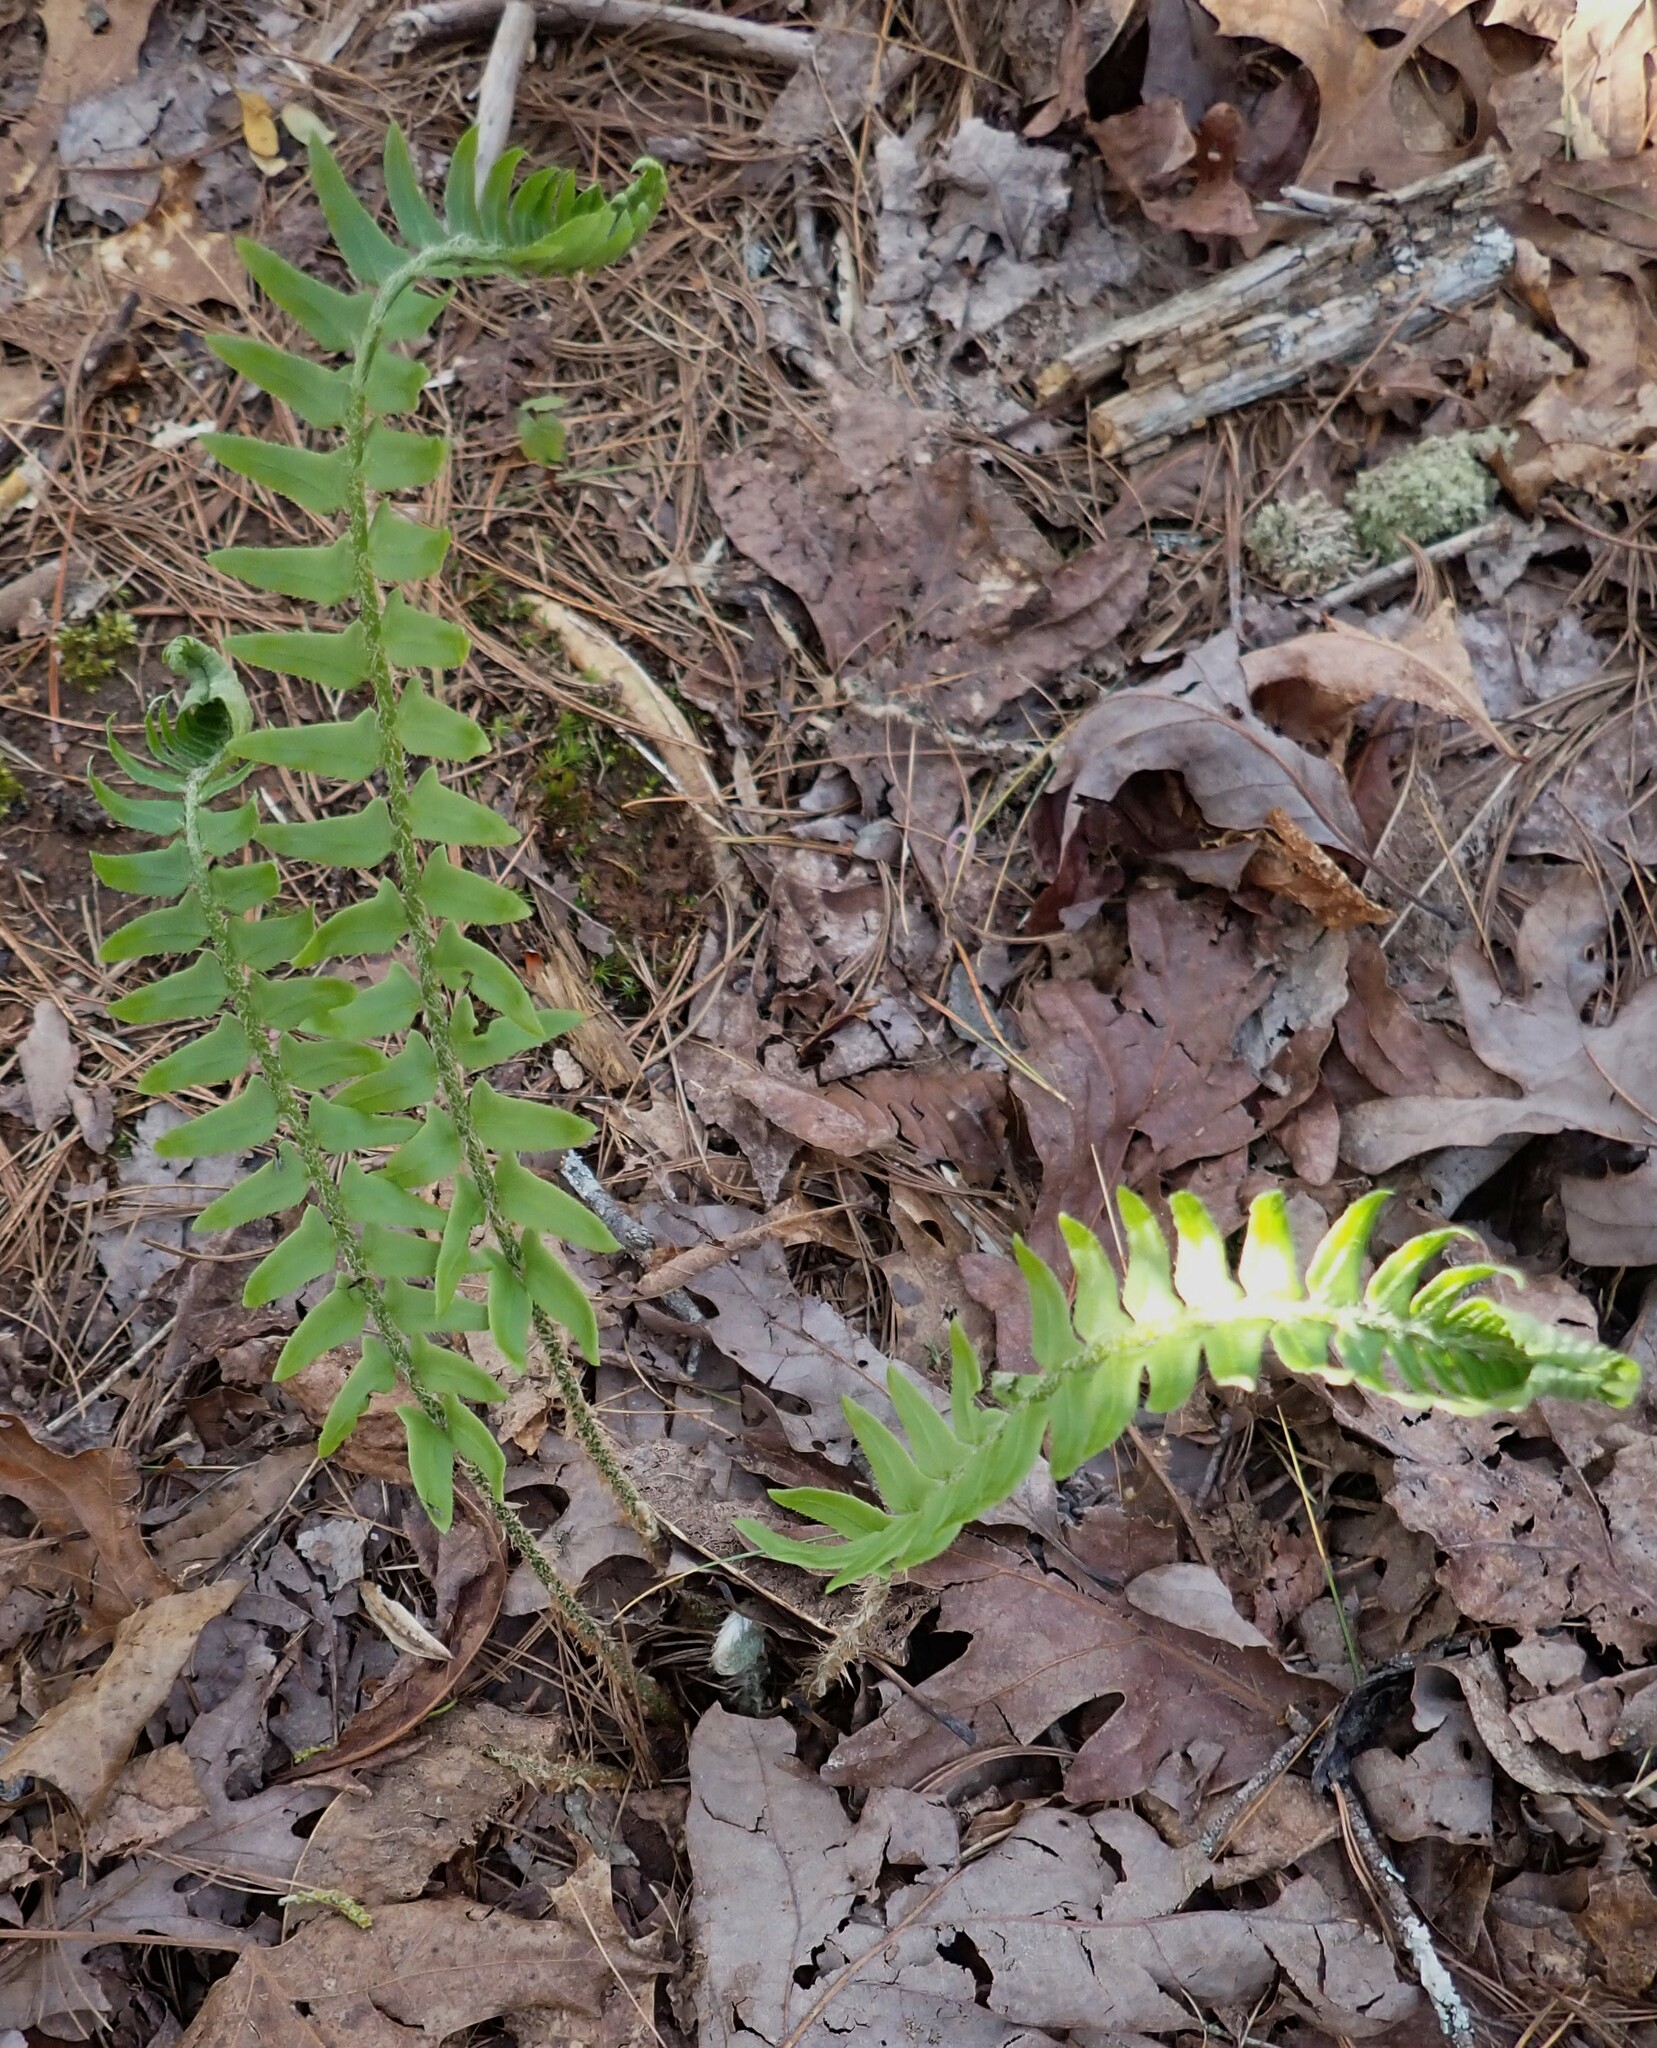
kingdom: Plantae
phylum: Tracheophyta
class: Polypodiopsida
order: Polypodiales
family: Dryopteridaceae
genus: Polystichum
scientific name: Polystichum acrostichoides
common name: Christmas fern
